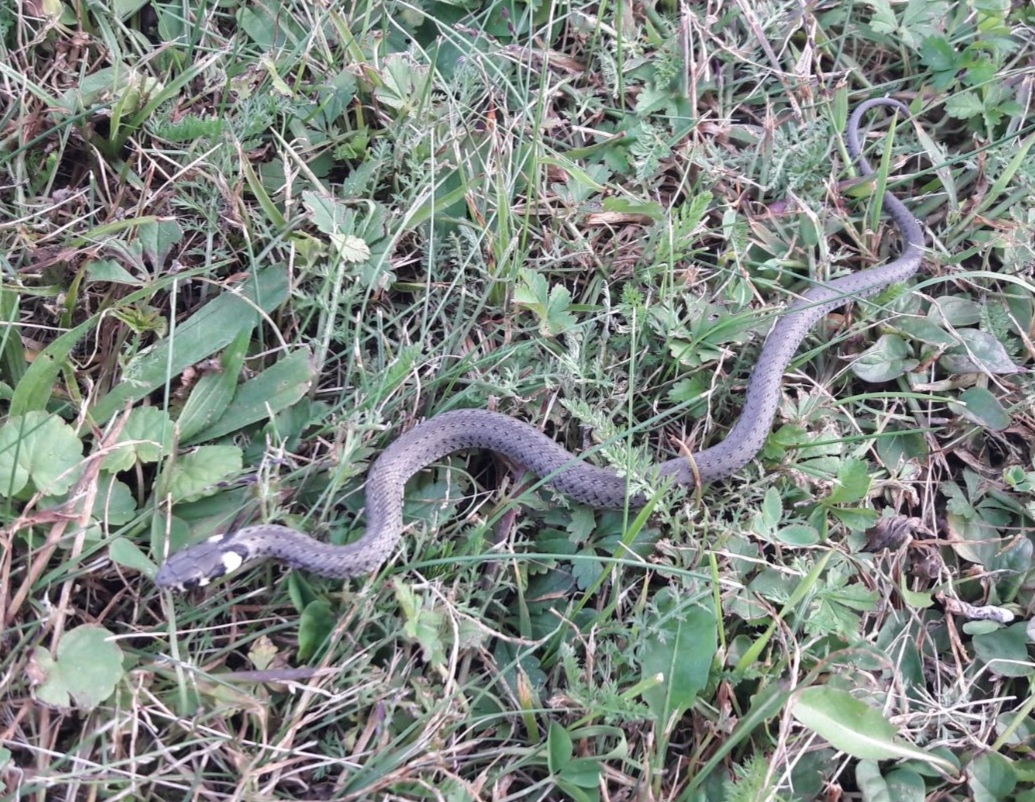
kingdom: Animalia
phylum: Chordata
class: Squamata
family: Colubridae
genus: Natrix
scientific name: Natrix natrix
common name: Grass snake
